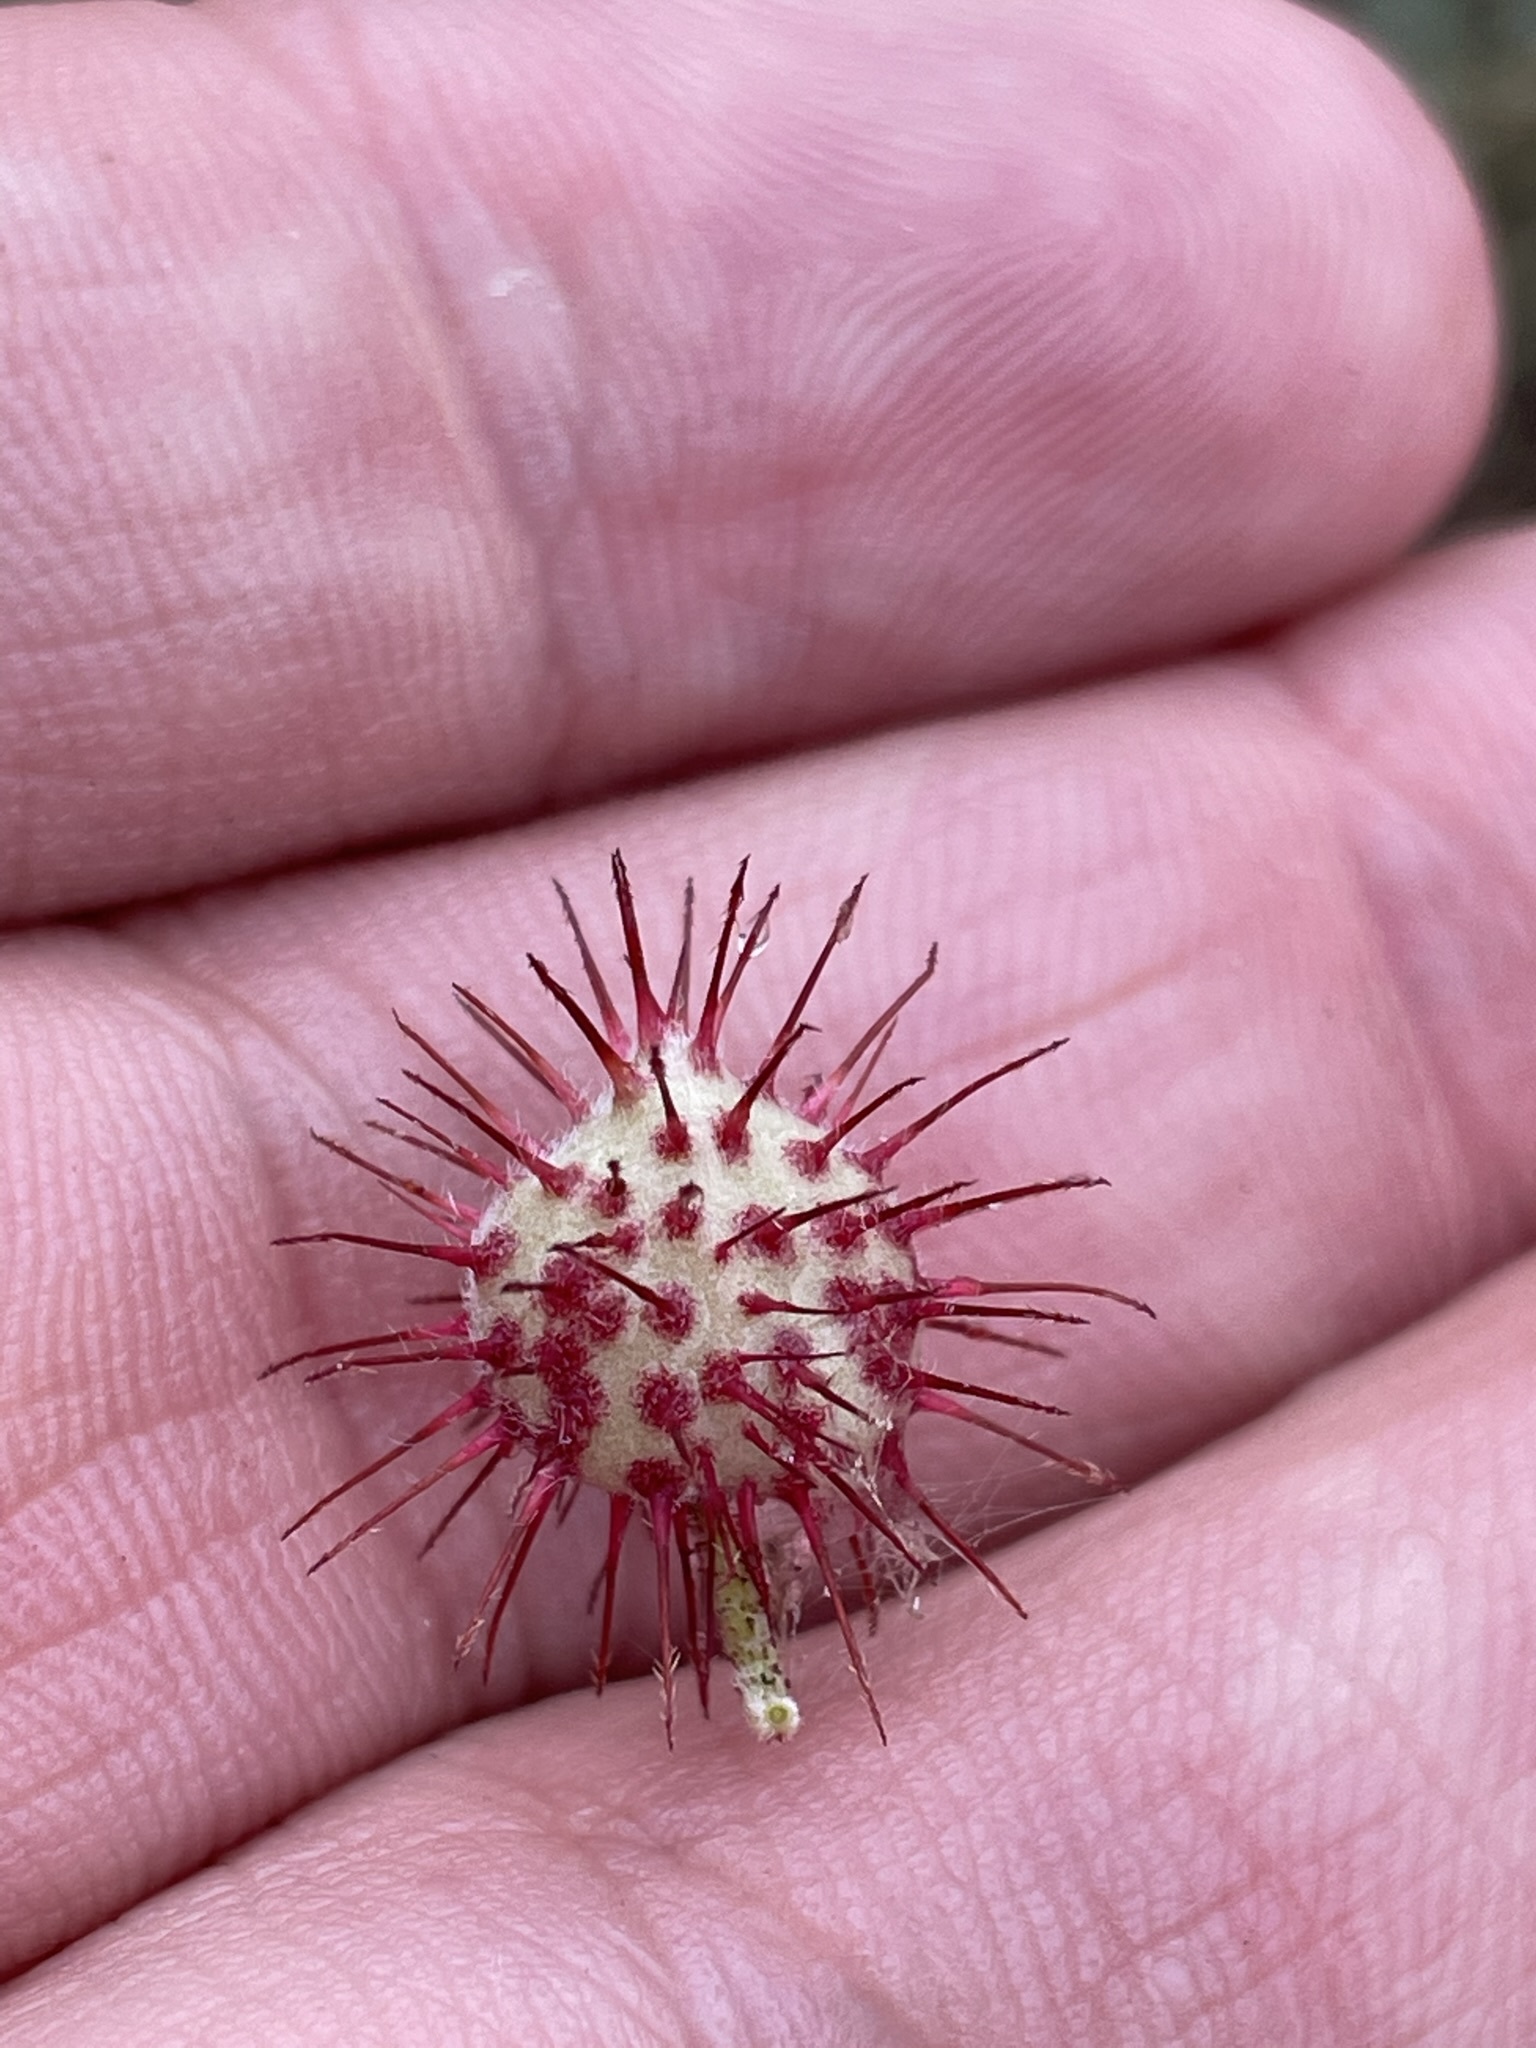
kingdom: Plantae
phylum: Tracheophyta
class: Magnoliopsida
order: Zygophyllales
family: Krameriaceae
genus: Krameria
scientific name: Krameria erecta
